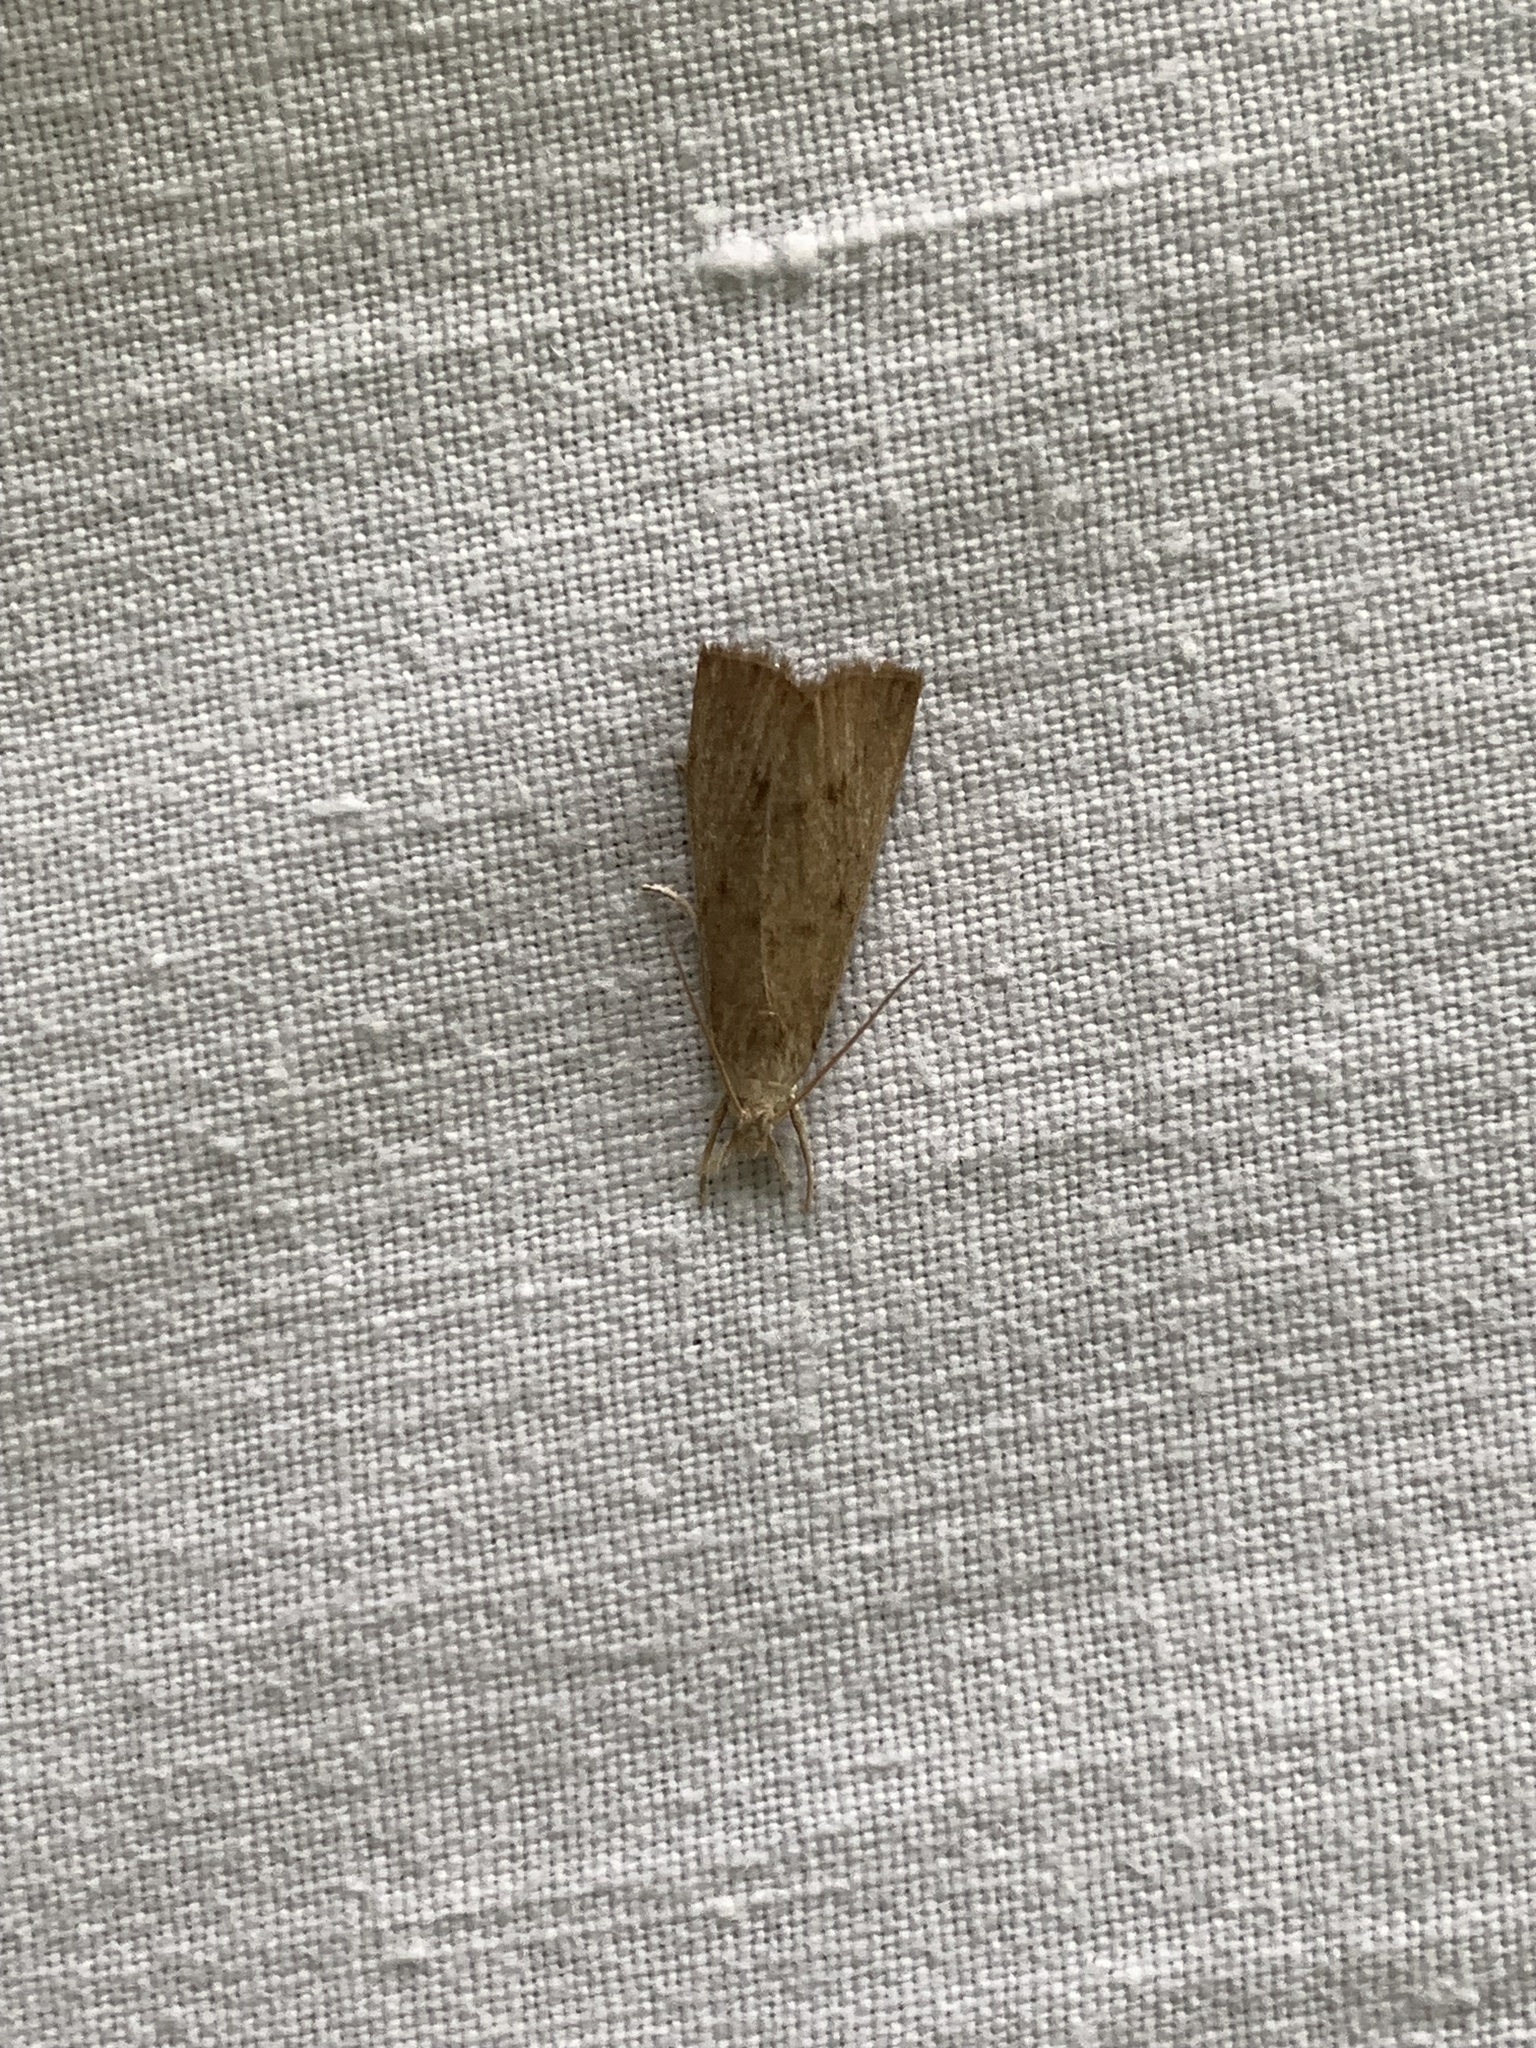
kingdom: Animalia
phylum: Arthropoda
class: Insecta
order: Lepidoptera
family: Crambidae
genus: Calamotropha
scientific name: Calamotropha paludella
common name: Bulrush veneer
